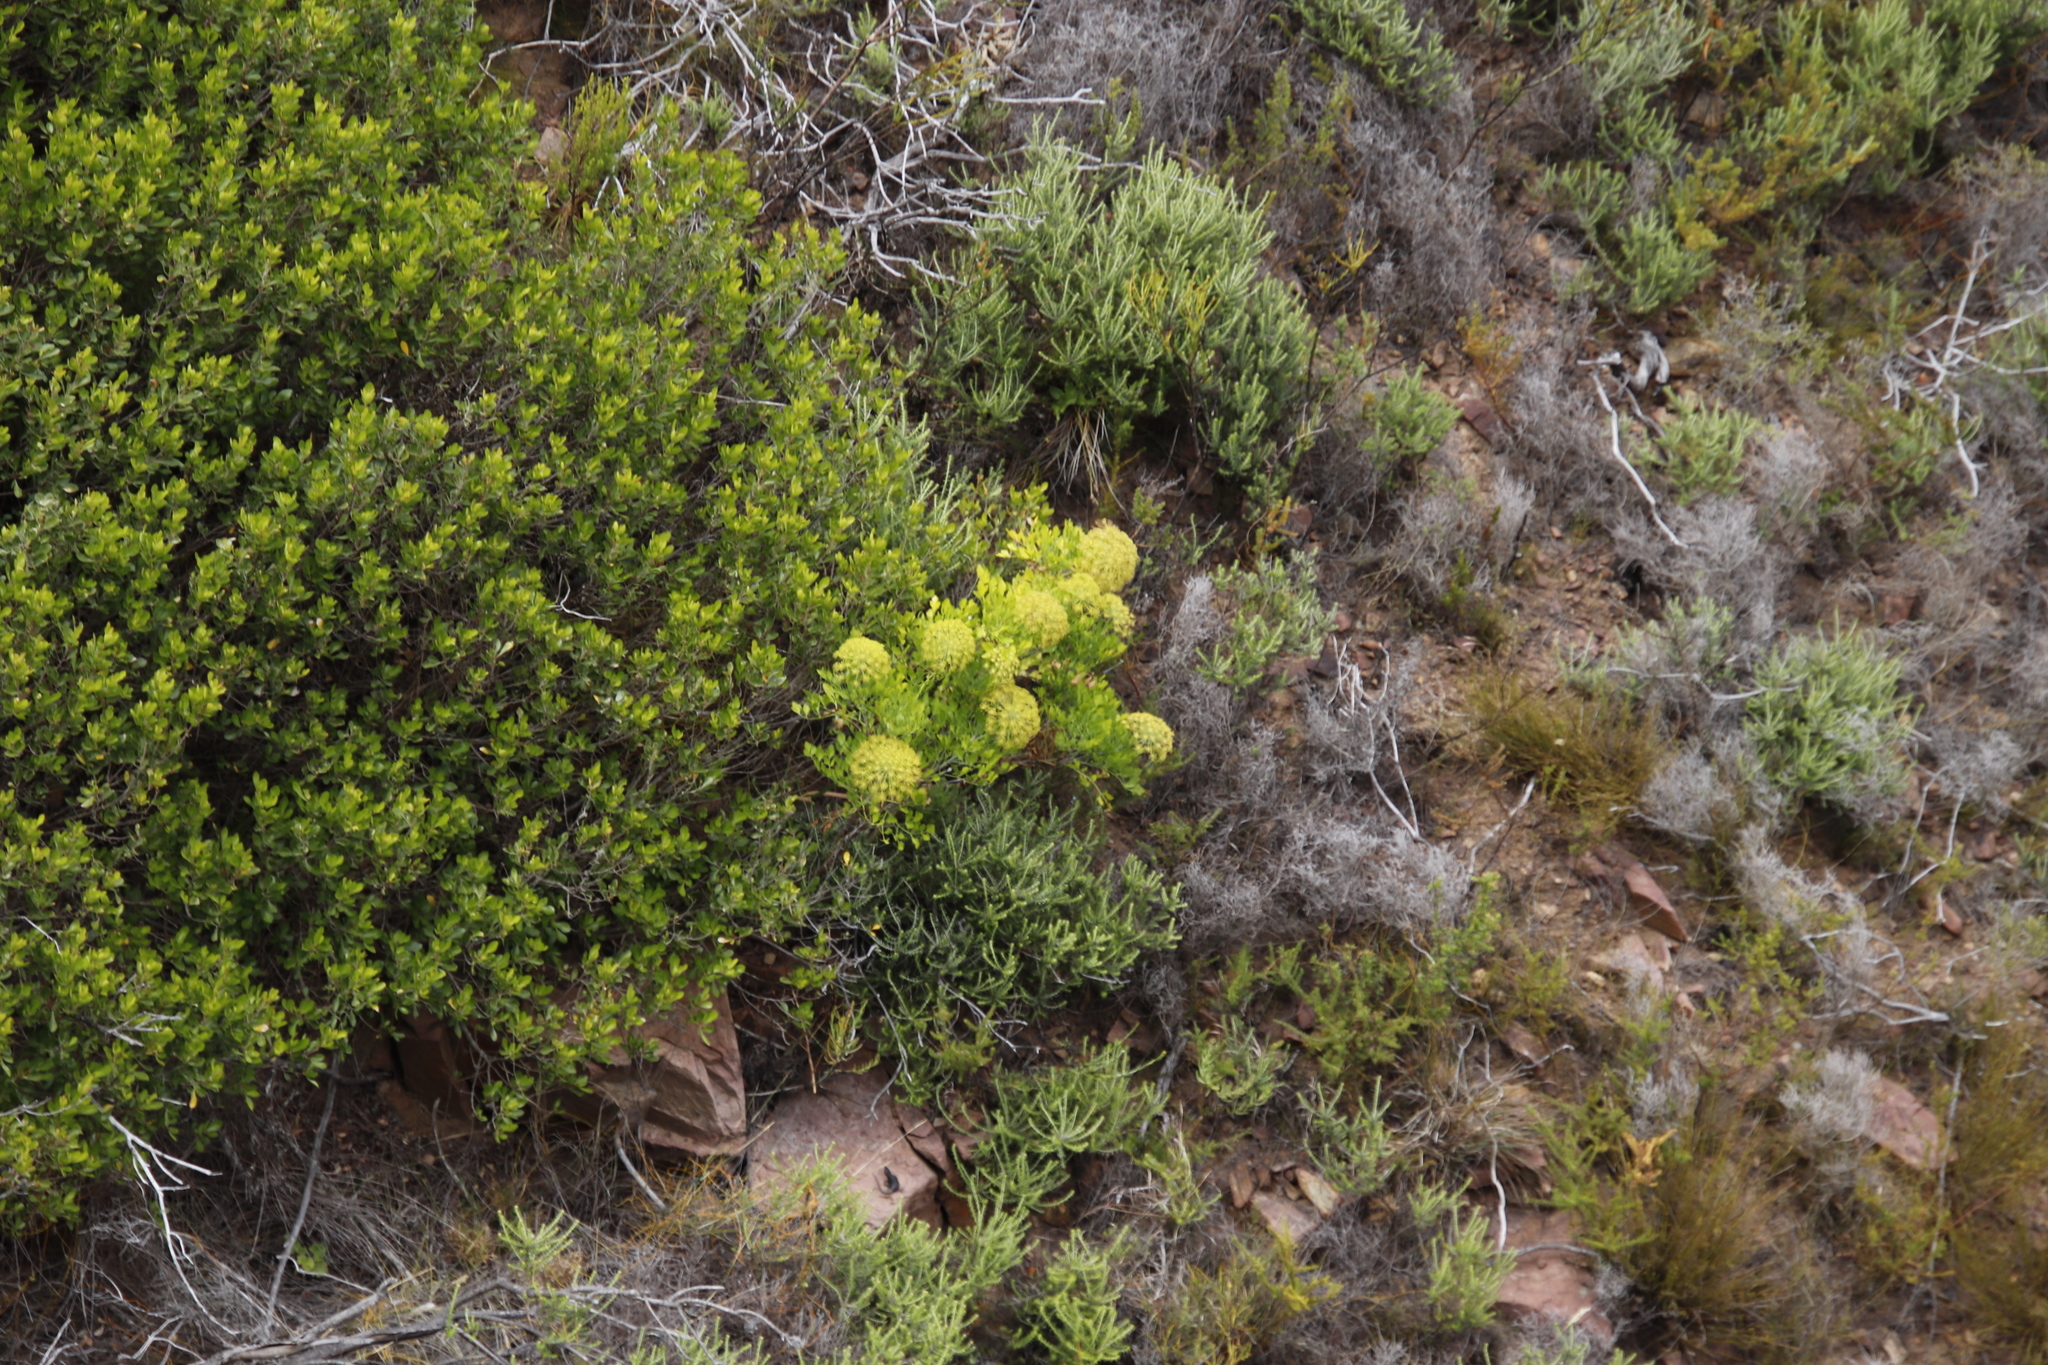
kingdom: Plantae
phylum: Tracheophyta
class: Magnoliopsida
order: Apiales
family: Apiaceae
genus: Notobubon
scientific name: Notobubon galbanum
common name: Blisterbush
